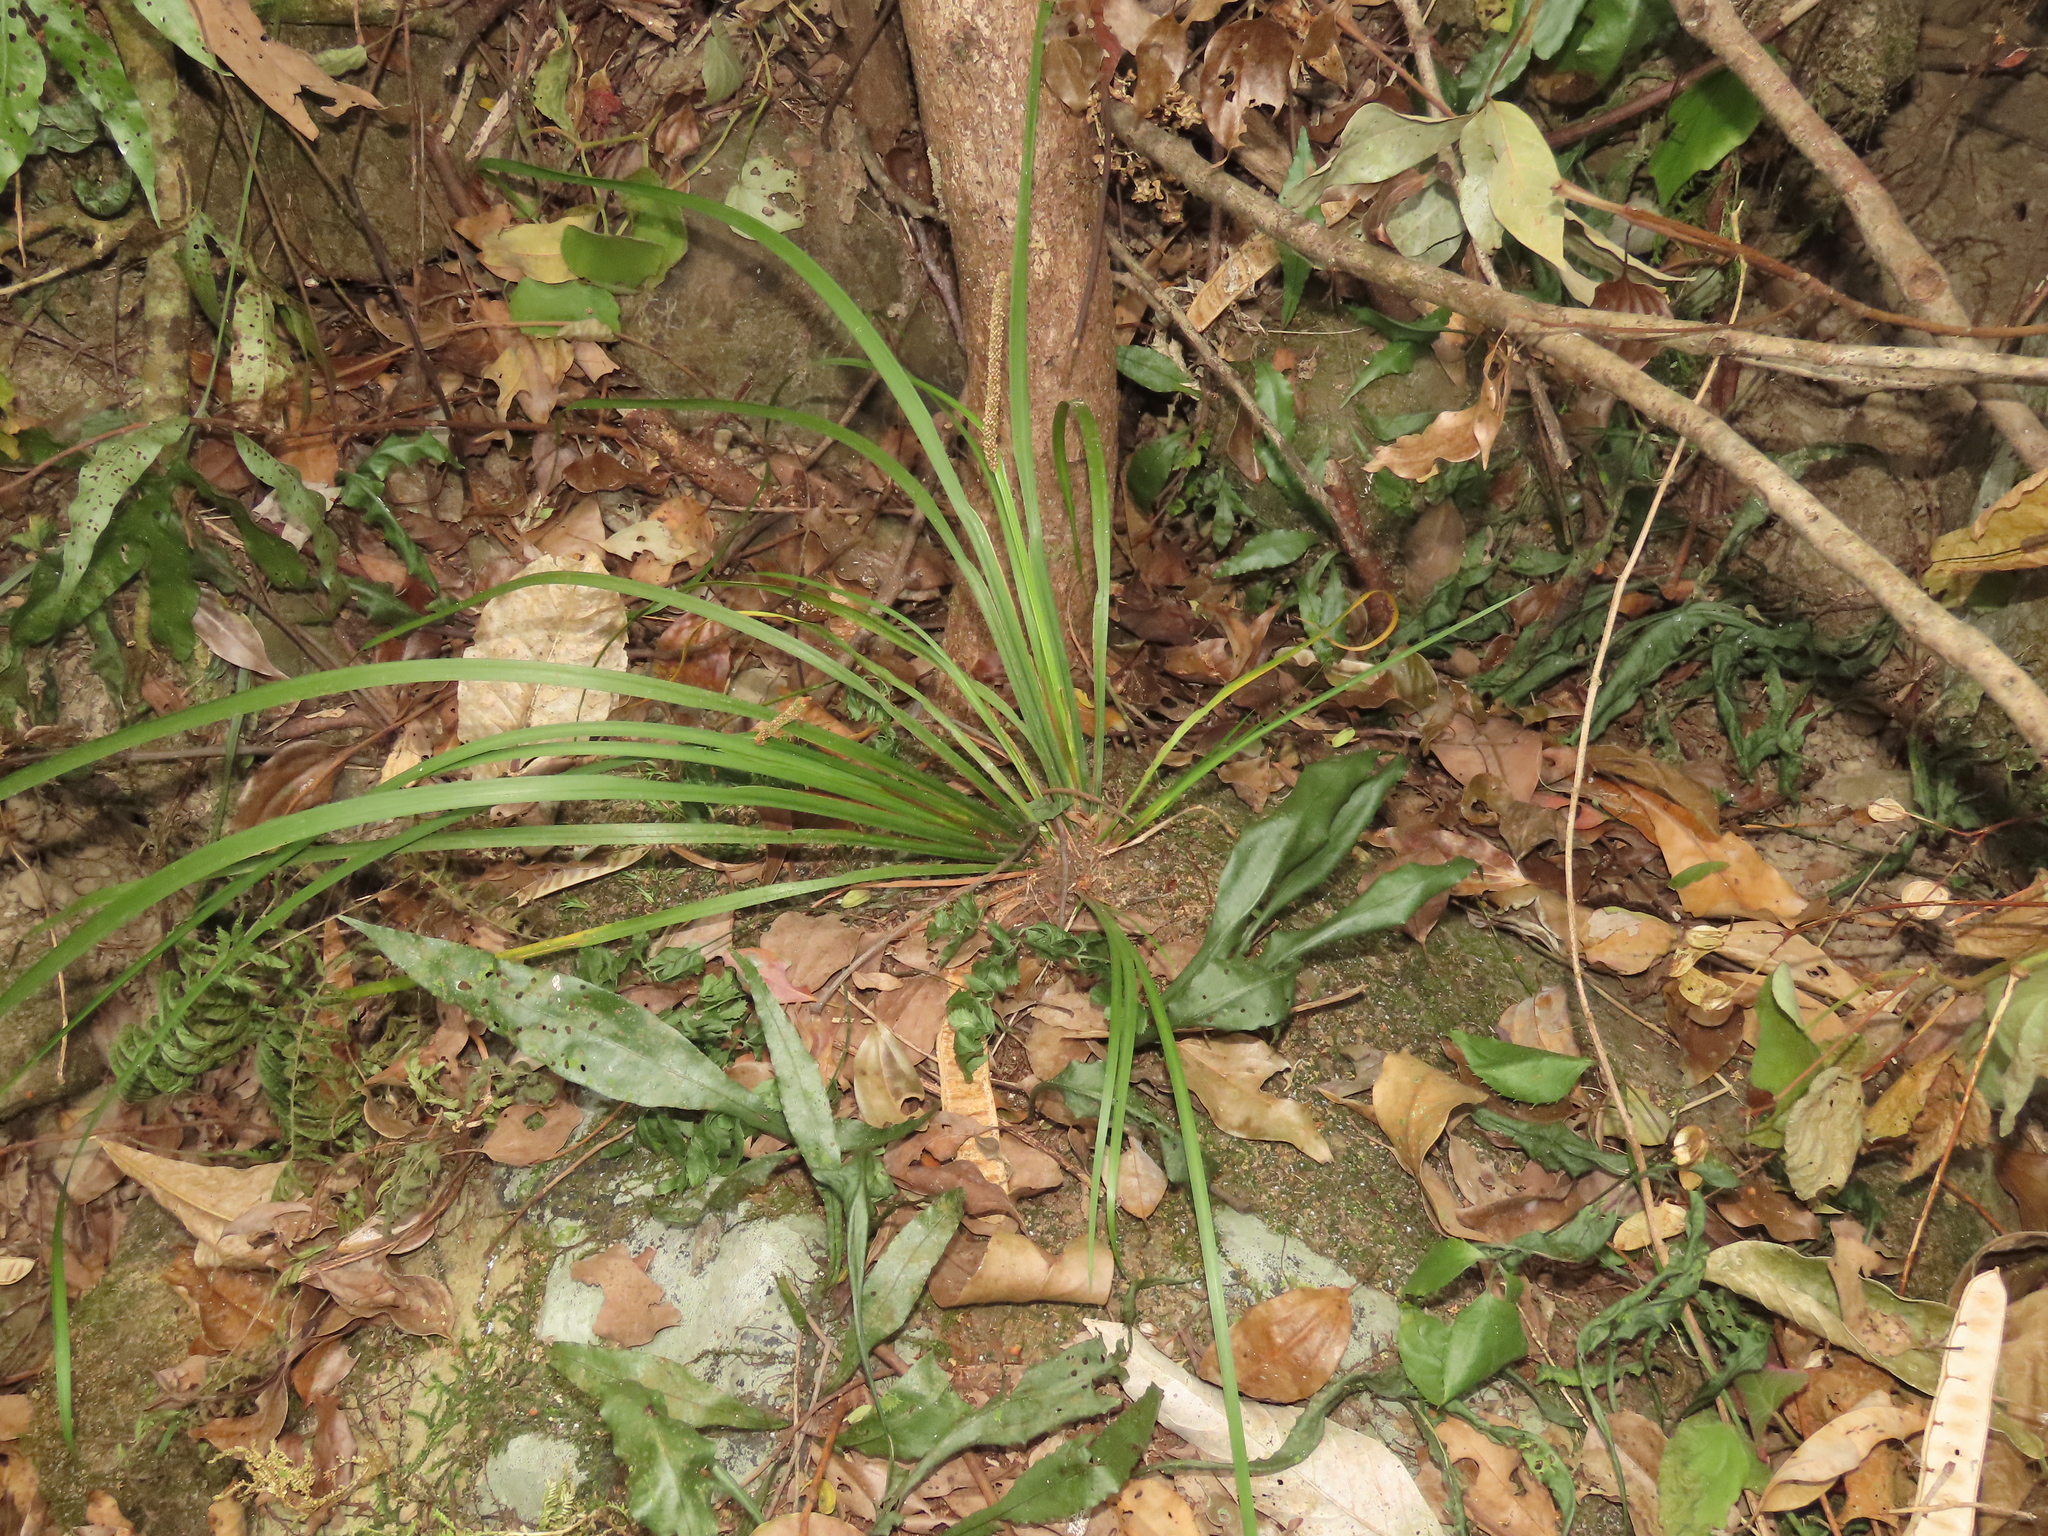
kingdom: Plantae
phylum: Tracheophyta
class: Liliopsida
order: Acorales
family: Acoraceae
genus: Acorus
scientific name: Acorus gramineus
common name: Slender sweet-flag
